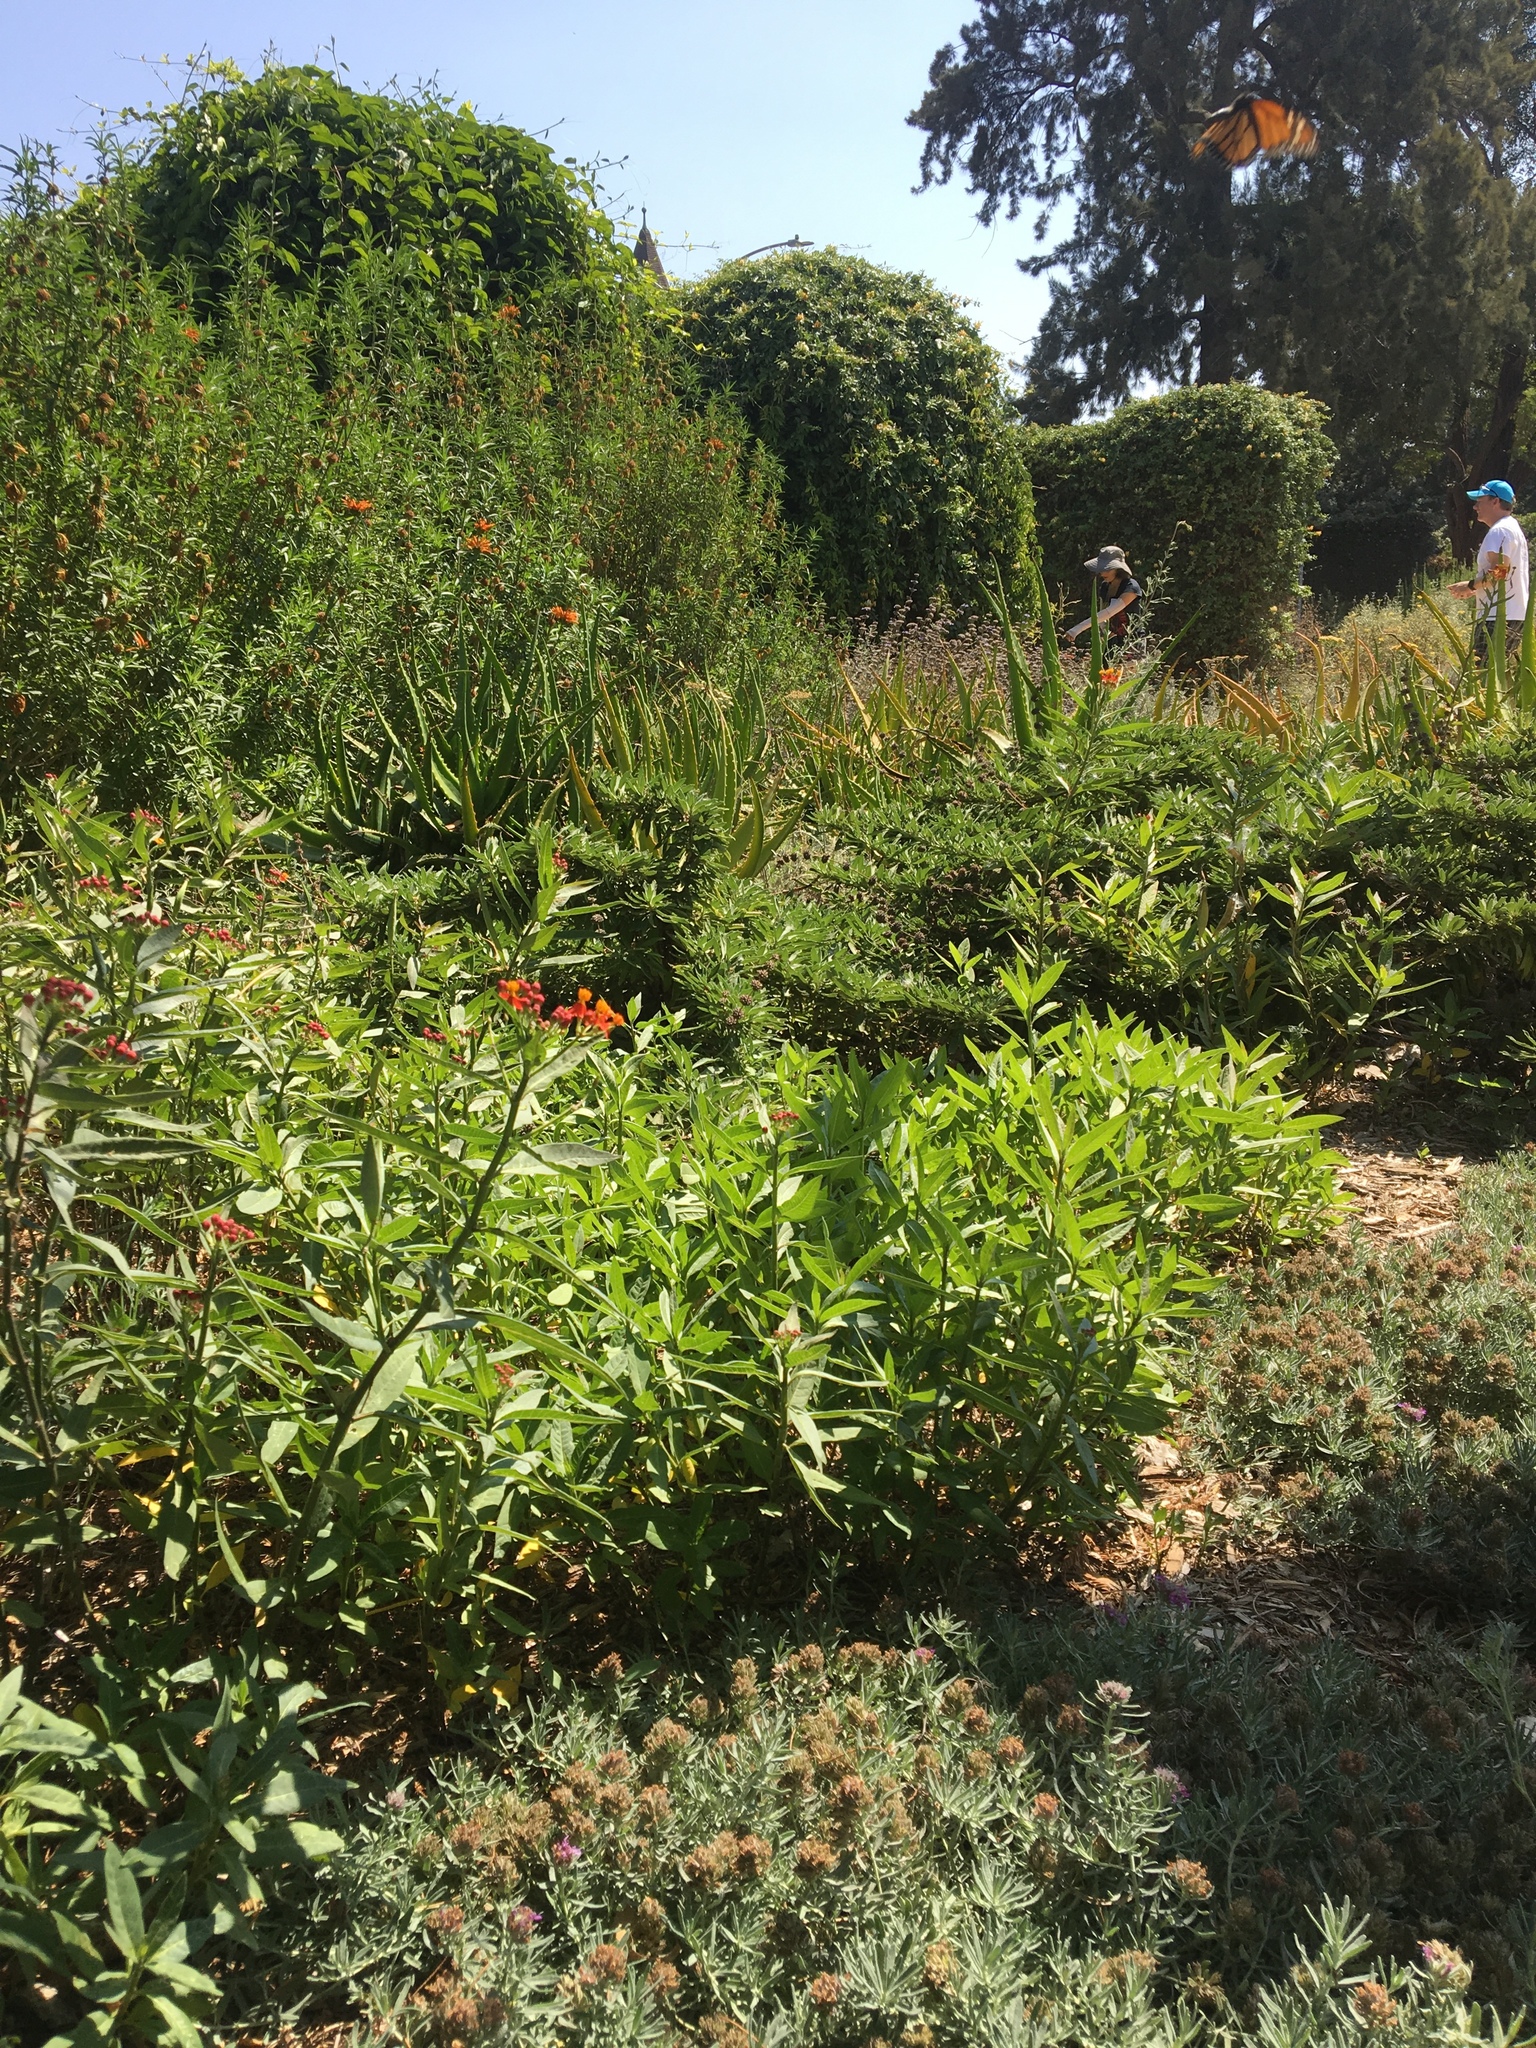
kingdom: Animalia
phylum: Arthropoda
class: Insecta
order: Lepidoptera
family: Nymphalidae
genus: Danaus
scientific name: Danaus plexippus
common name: Monarch
